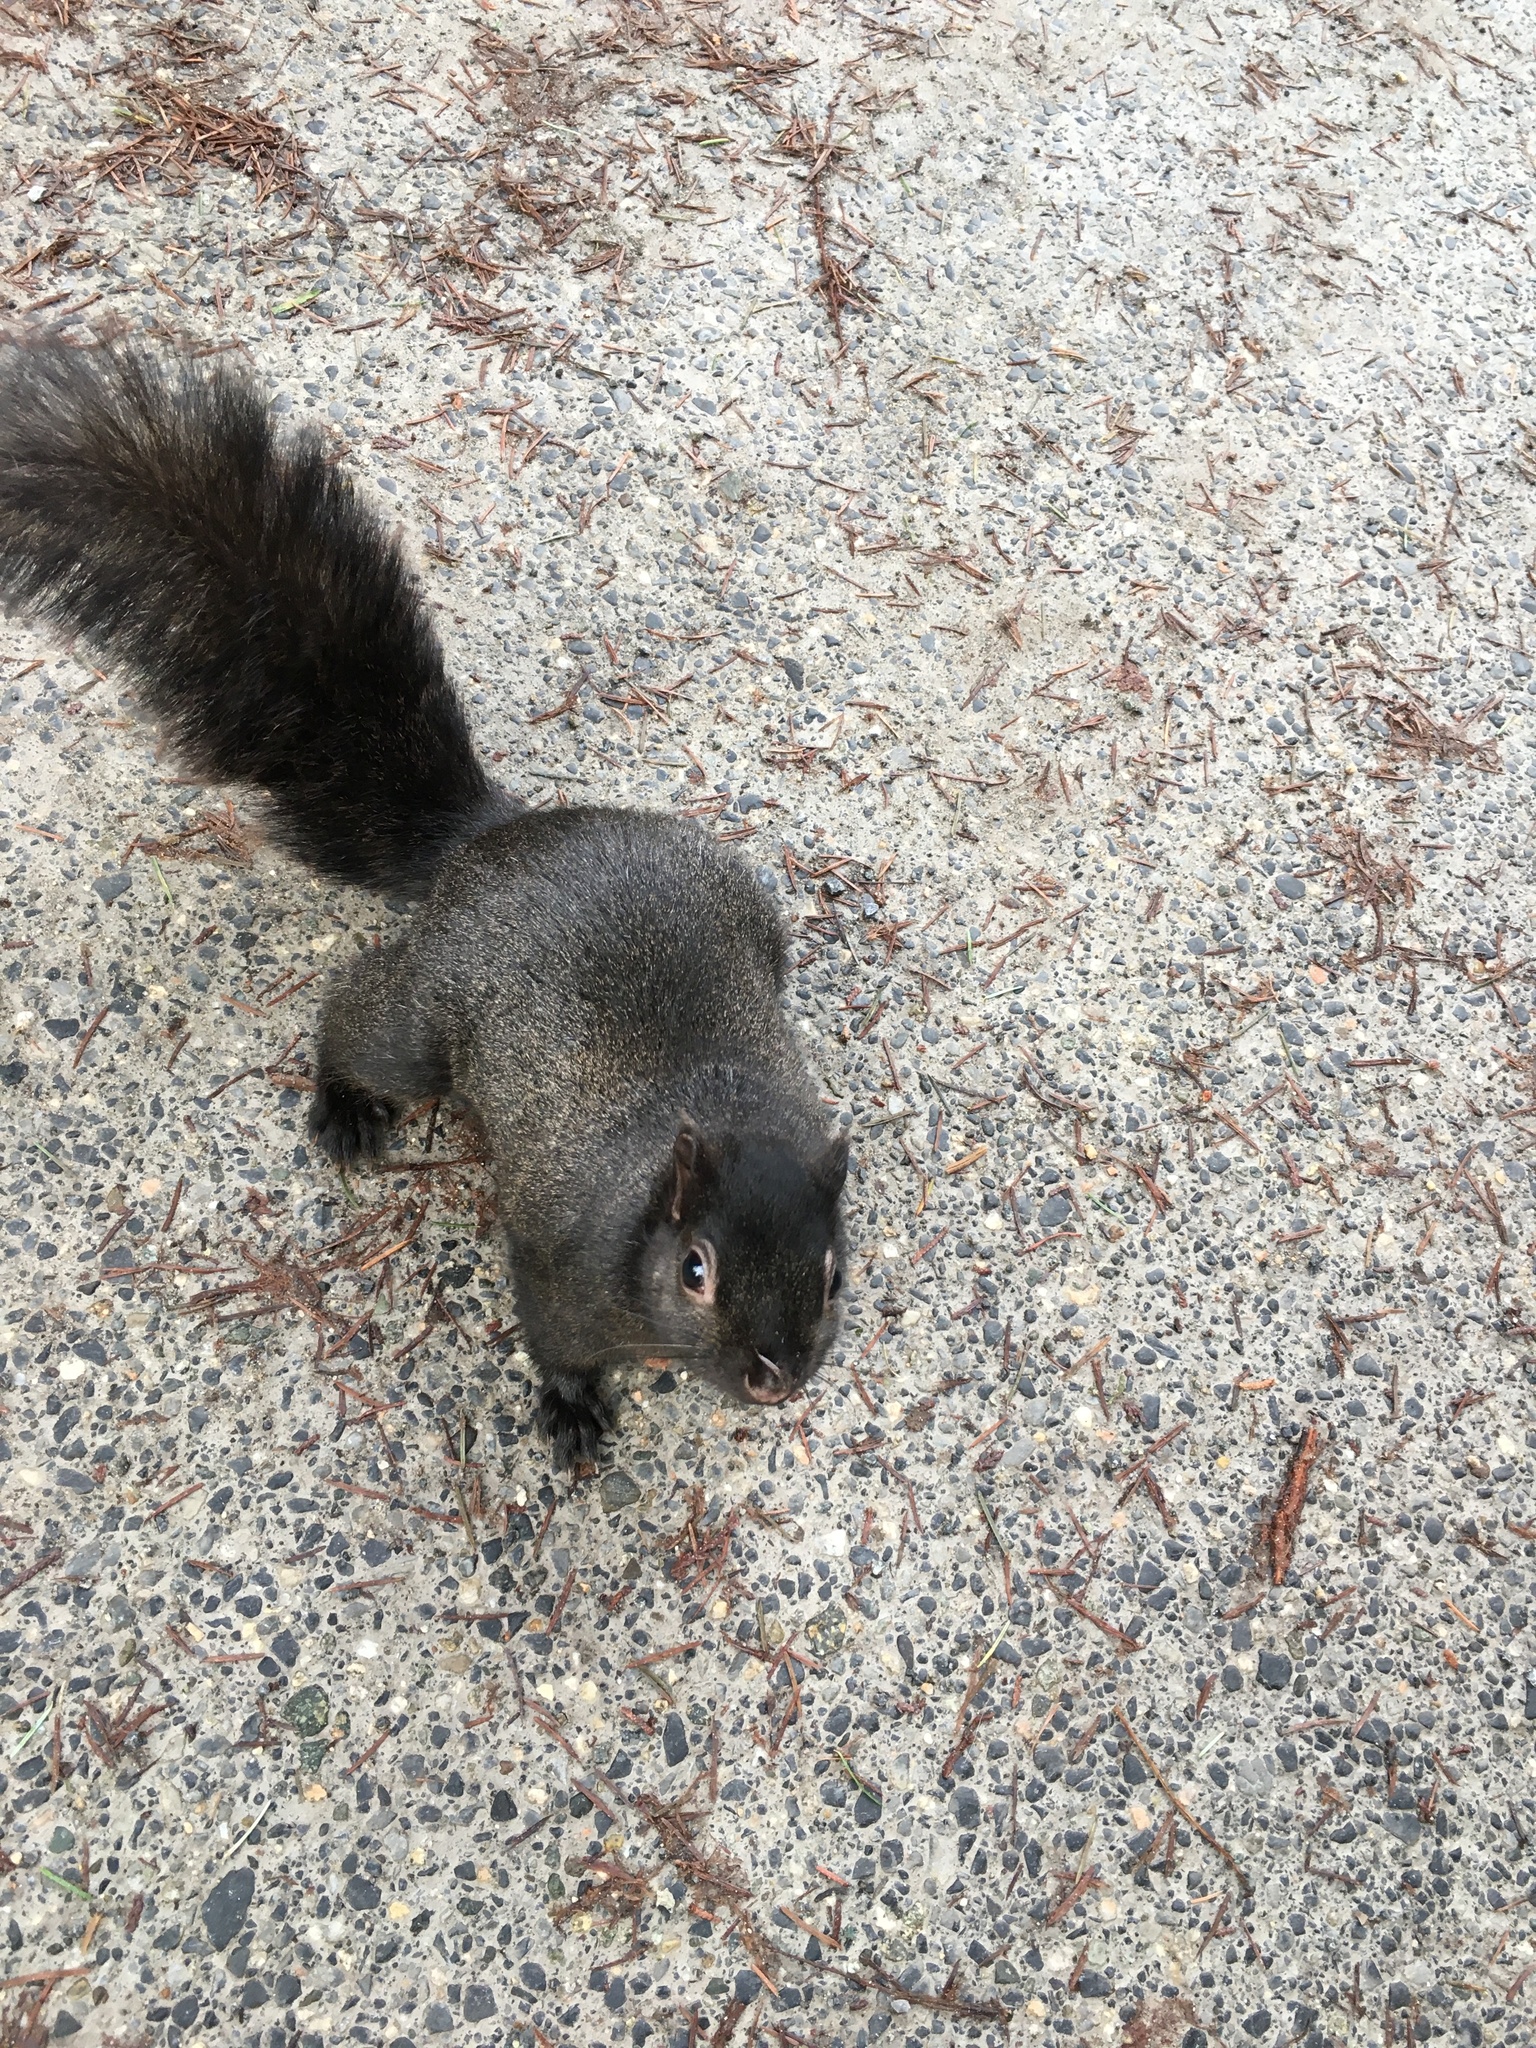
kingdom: Animalia
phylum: Chordata
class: Mammalia
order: Rodentia
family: Sciuridae
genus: Sciurus
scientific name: Sciurus carolinensis
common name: Eastern gray squirrel
